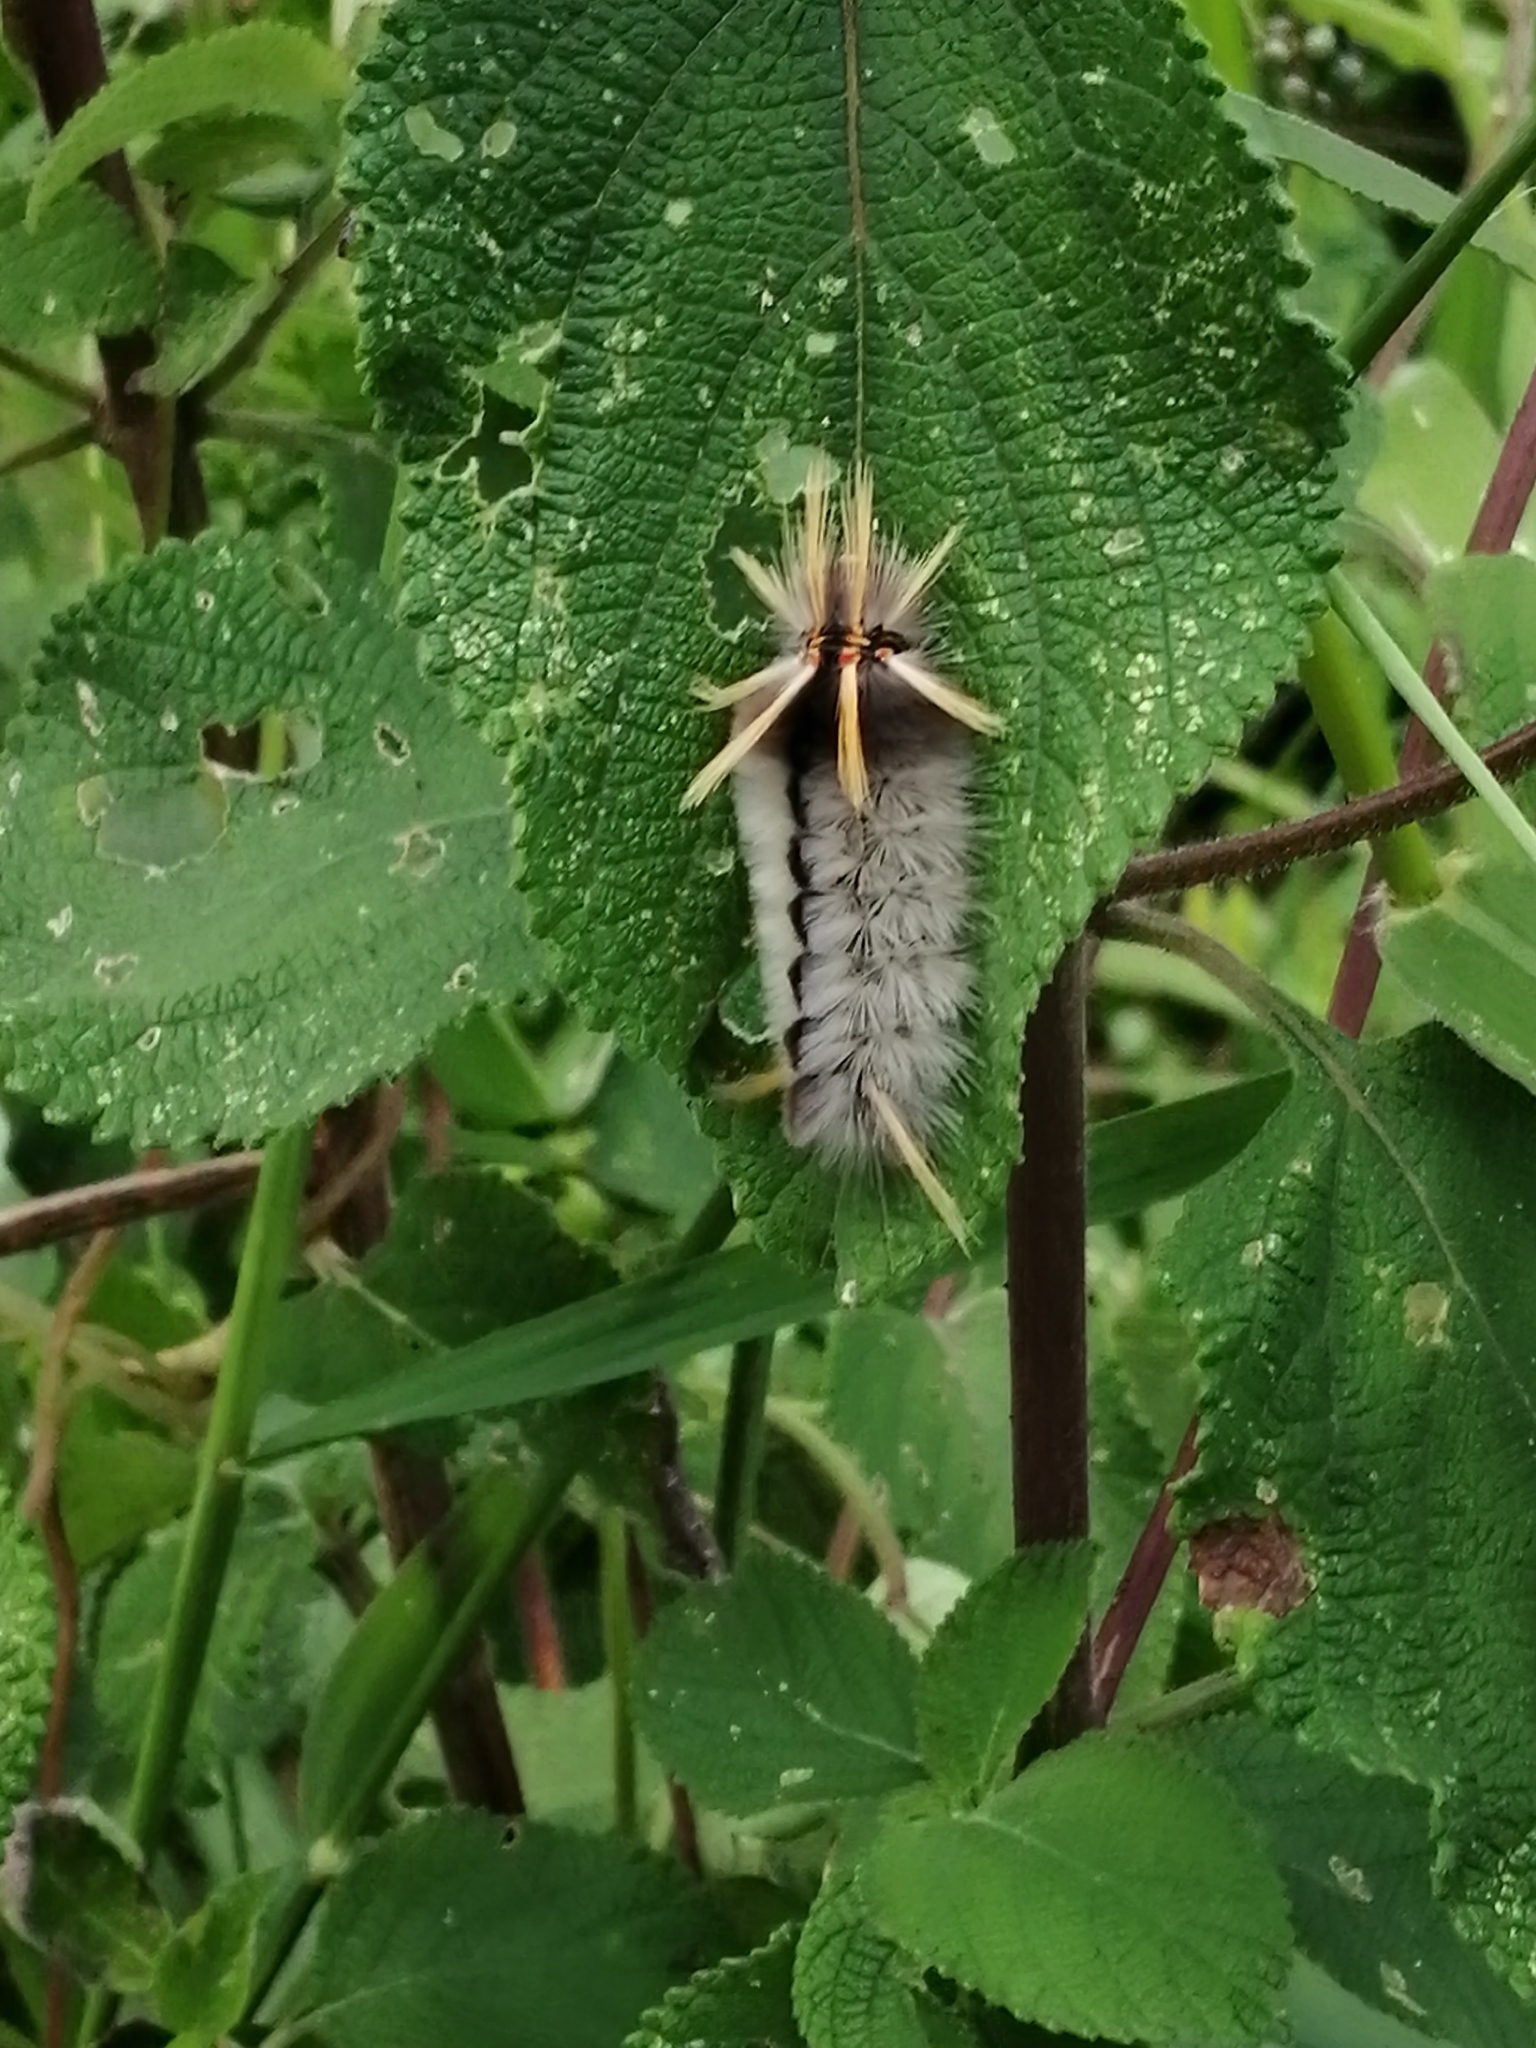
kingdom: Animalia
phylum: Arthropoda
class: Insecta
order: Lepidoptera
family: Erebidae
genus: Halysidota
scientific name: Halysidota schausi
